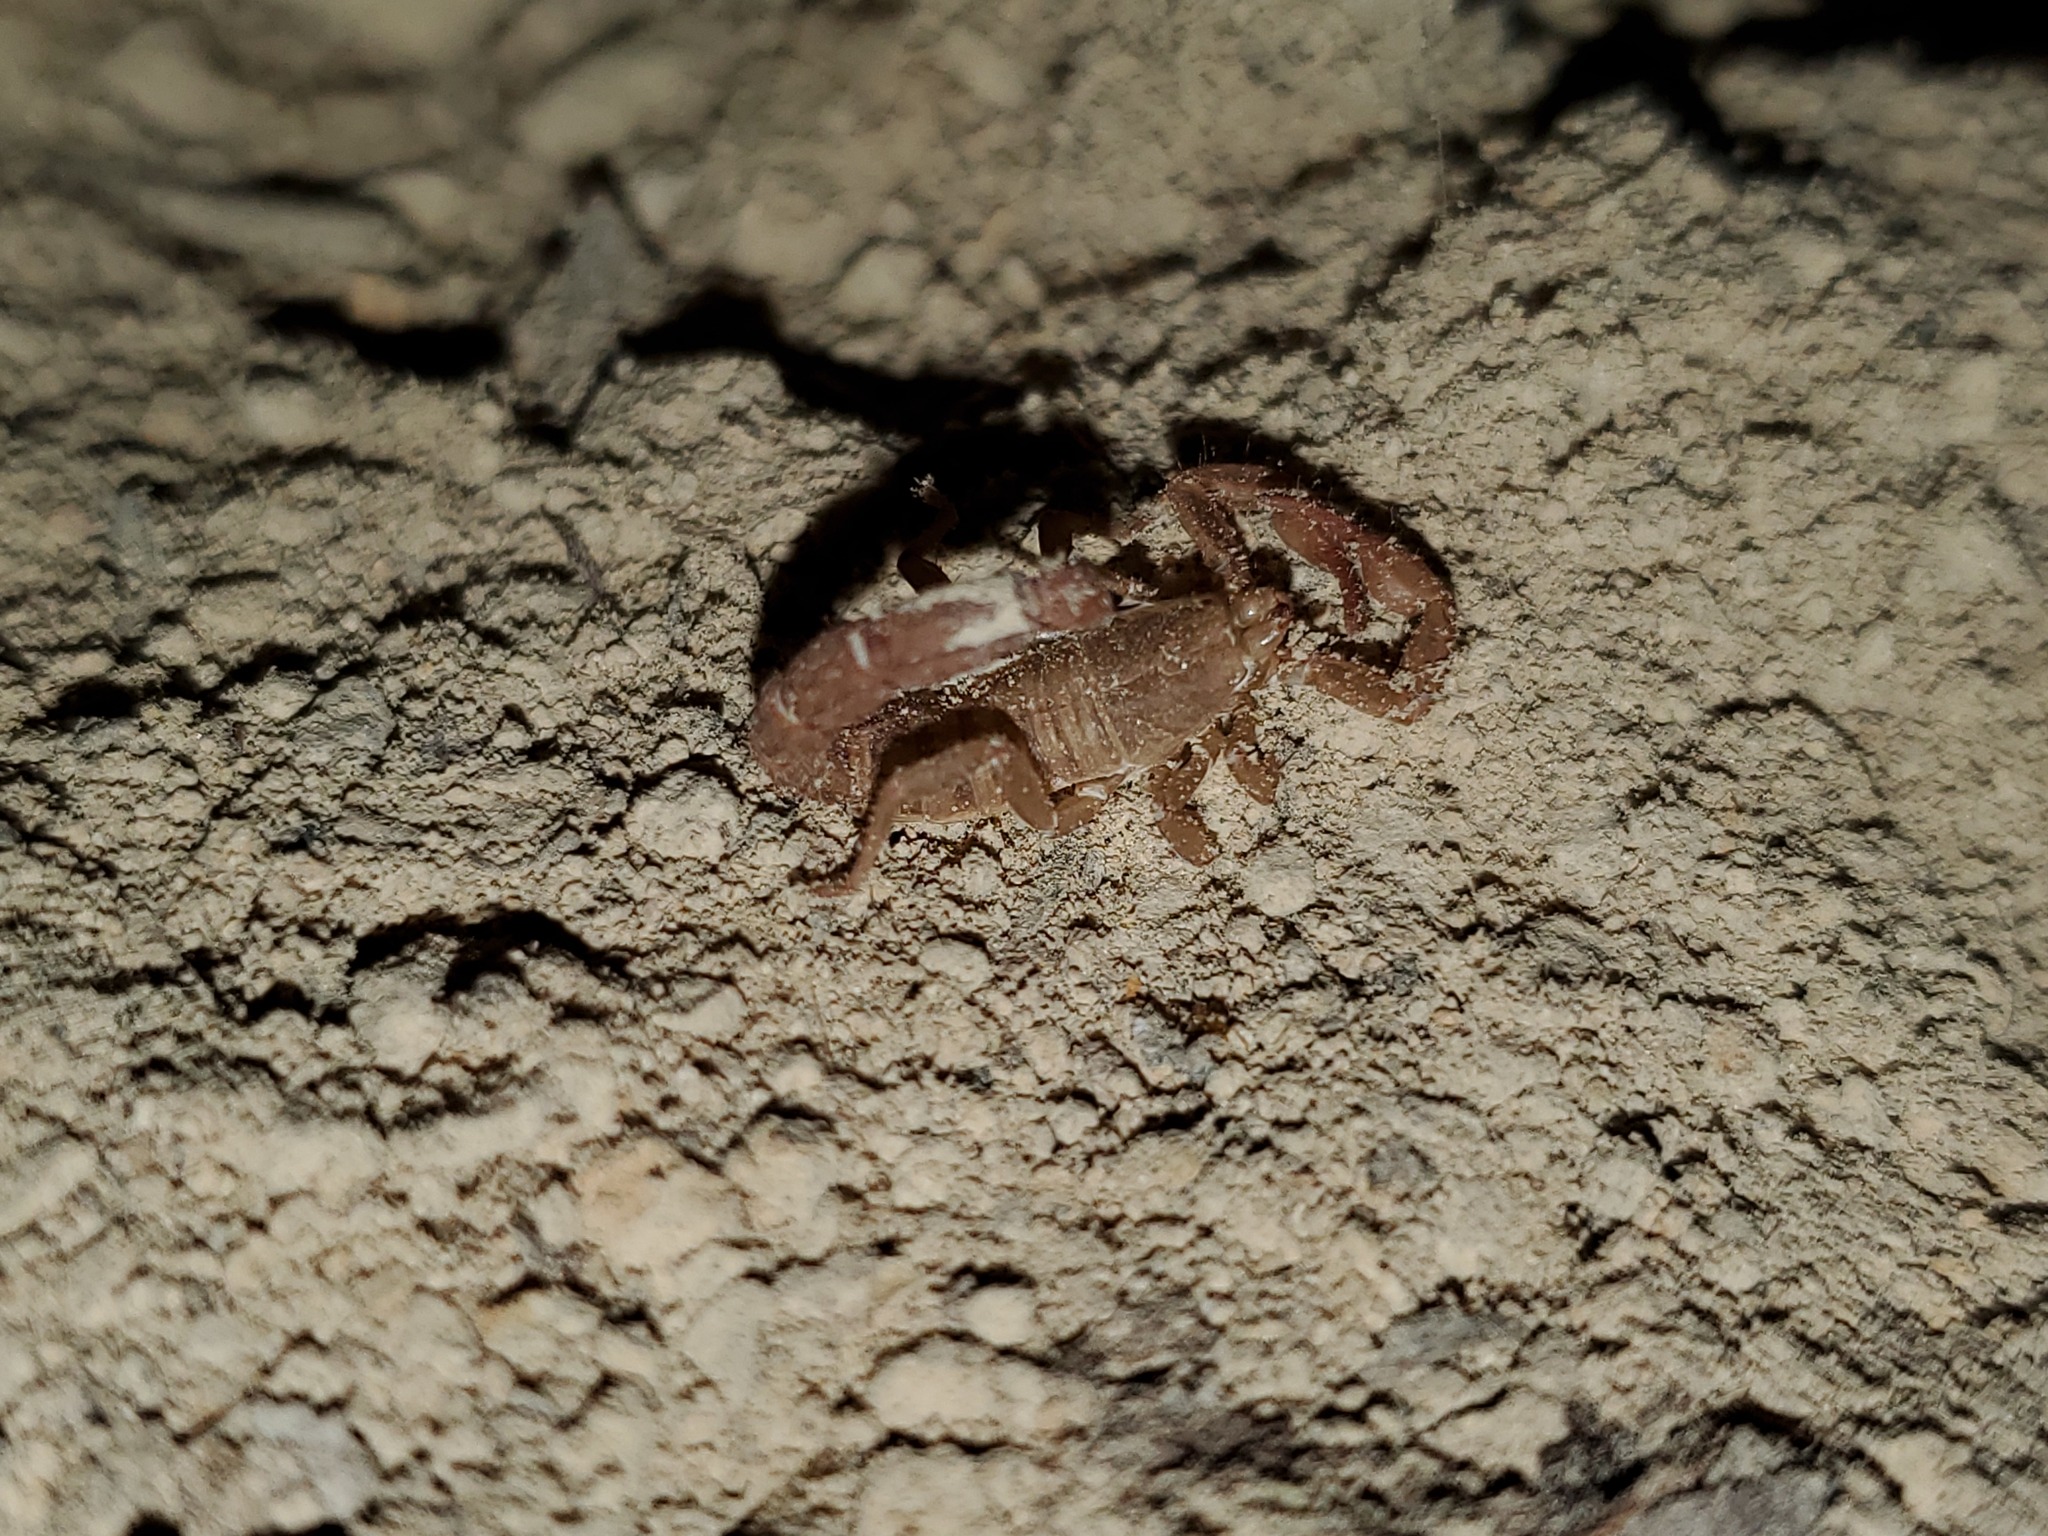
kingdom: Animalia
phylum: Arthropoda
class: Arachnida
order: Scorpiones
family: Vaejovidae
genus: Vaejovis
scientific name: Vaejovis carolinianus
